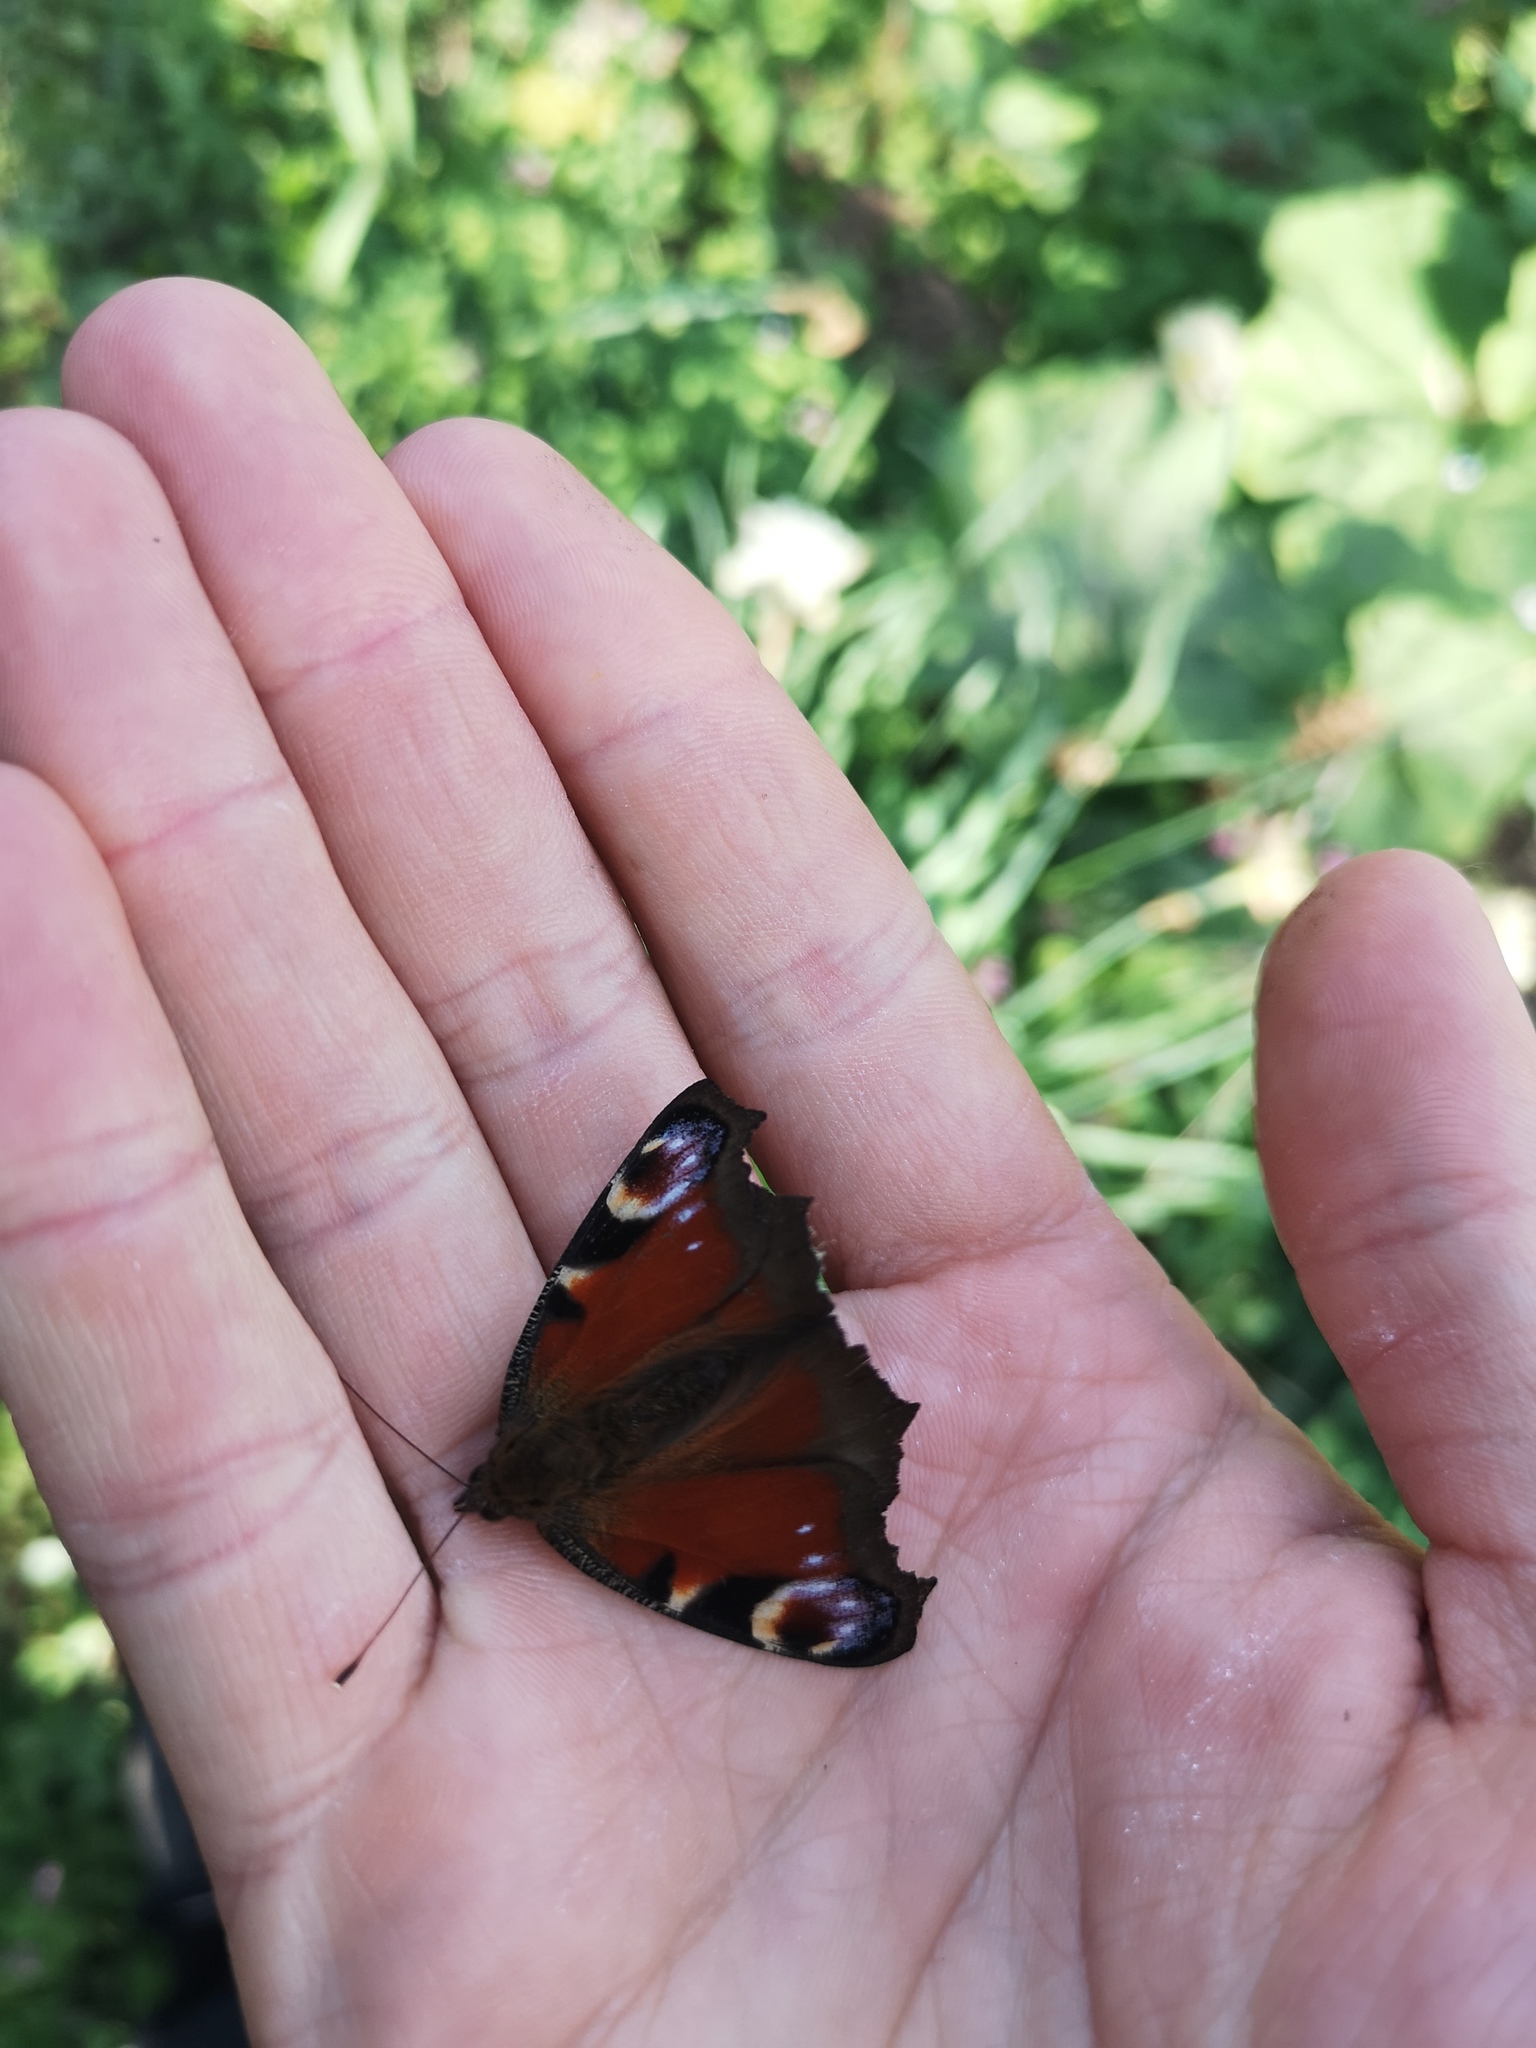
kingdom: Animalia
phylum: Arthropoda
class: Insecta
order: Lepidoptera
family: Nymphalidae
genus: Aglais
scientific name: Aglais io
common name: Peacock
